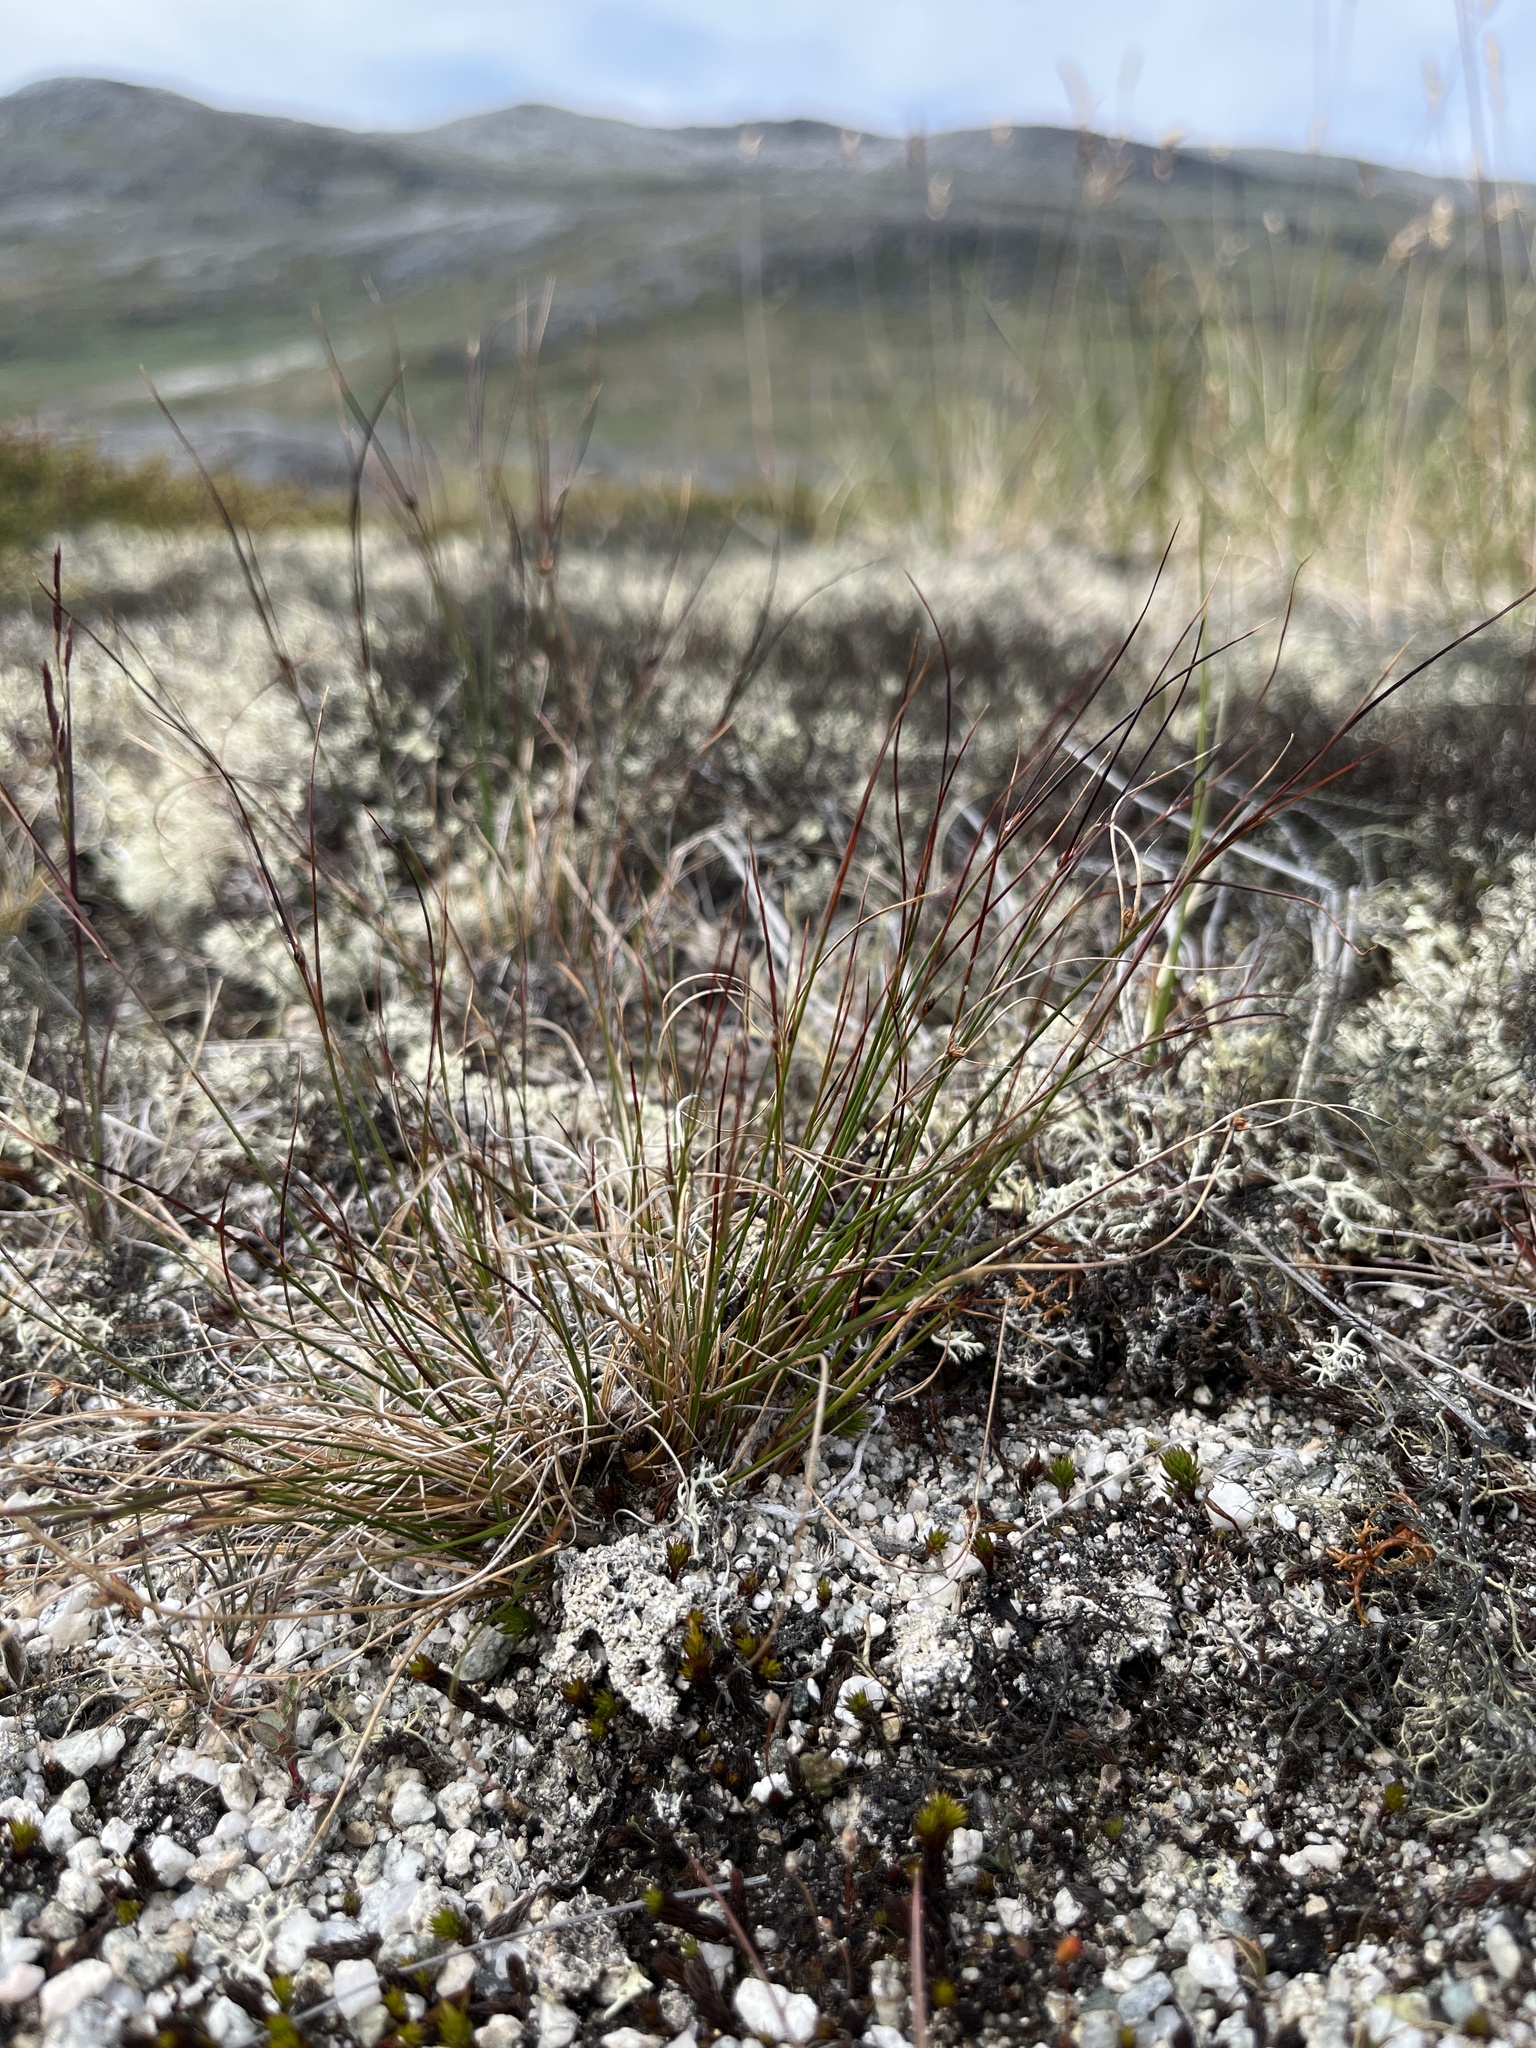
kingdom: Plantae
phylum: Tracheophyta
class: Liliopsida
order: Poales
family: Juncaceae
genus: Oreojuncus
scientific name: Oreojuncus trifidus
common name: Highland rush
